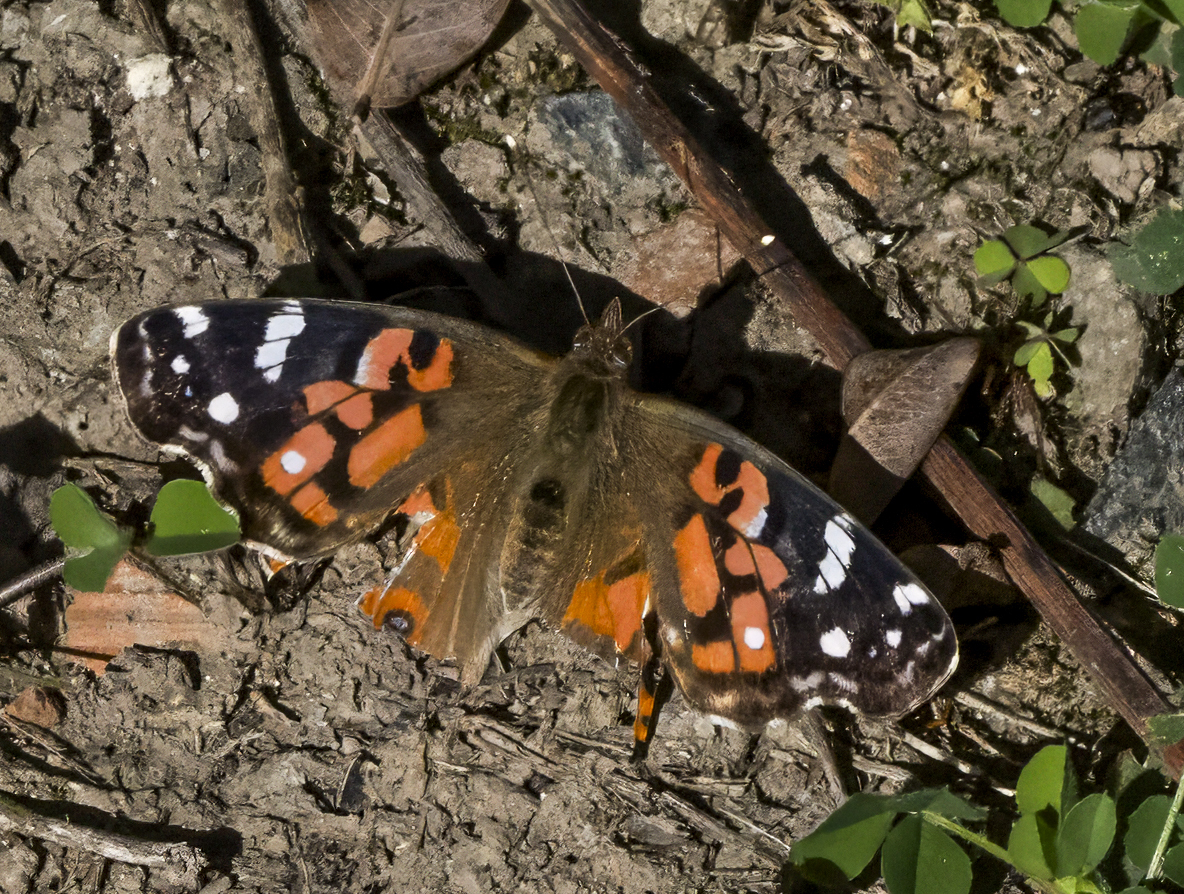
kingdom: Animalia
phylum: Arthropoda
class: Insecta
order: Lepidoptera
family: Nymphalidae
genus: Vanessa
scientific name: Vanessa braziliensis
